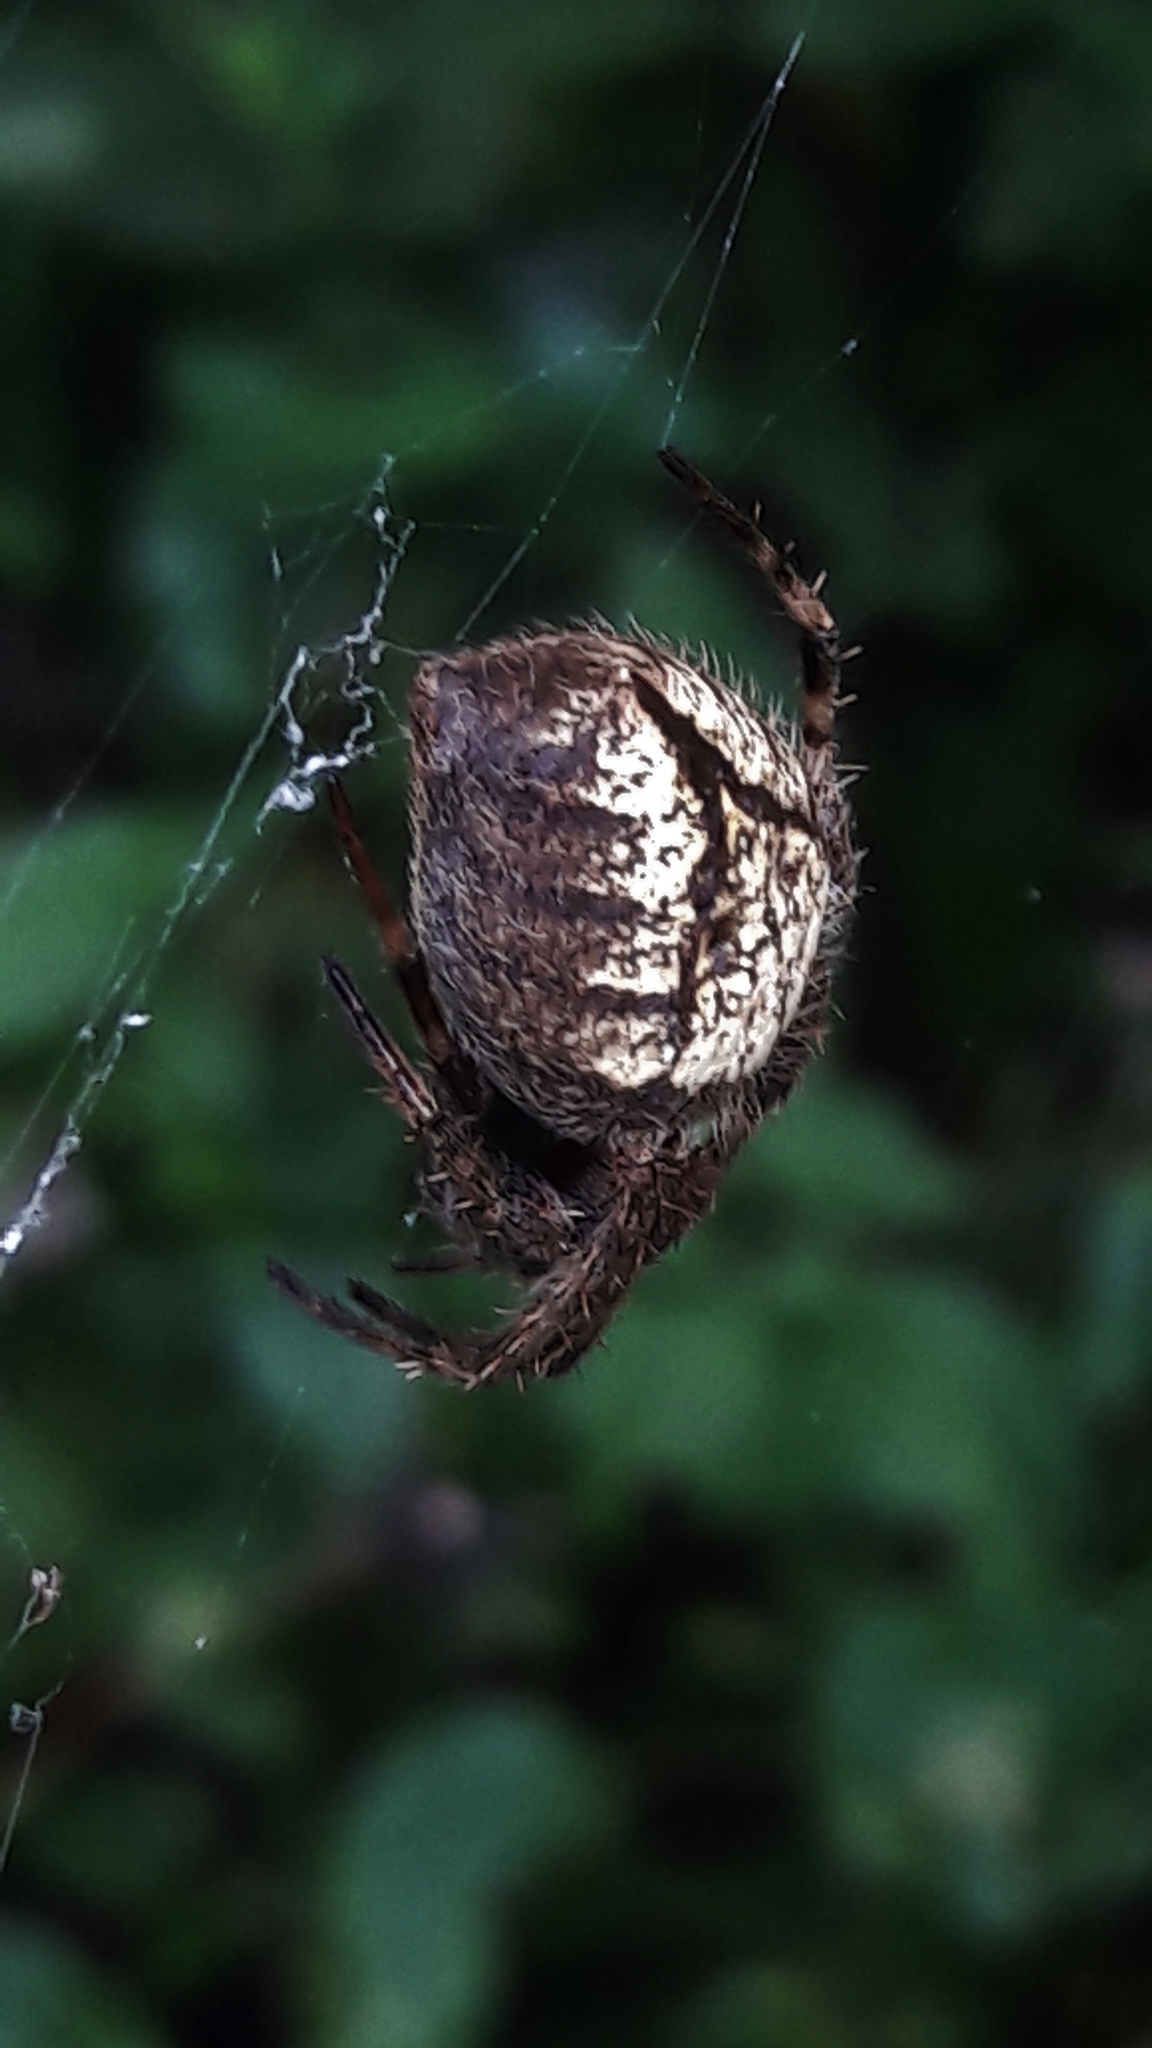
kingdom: Animalia
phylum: Arthropoda
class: Arachnida
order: Araneae
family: Araneidae
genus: Eriophora
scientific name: Eriophora edax
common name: Orb weavers
